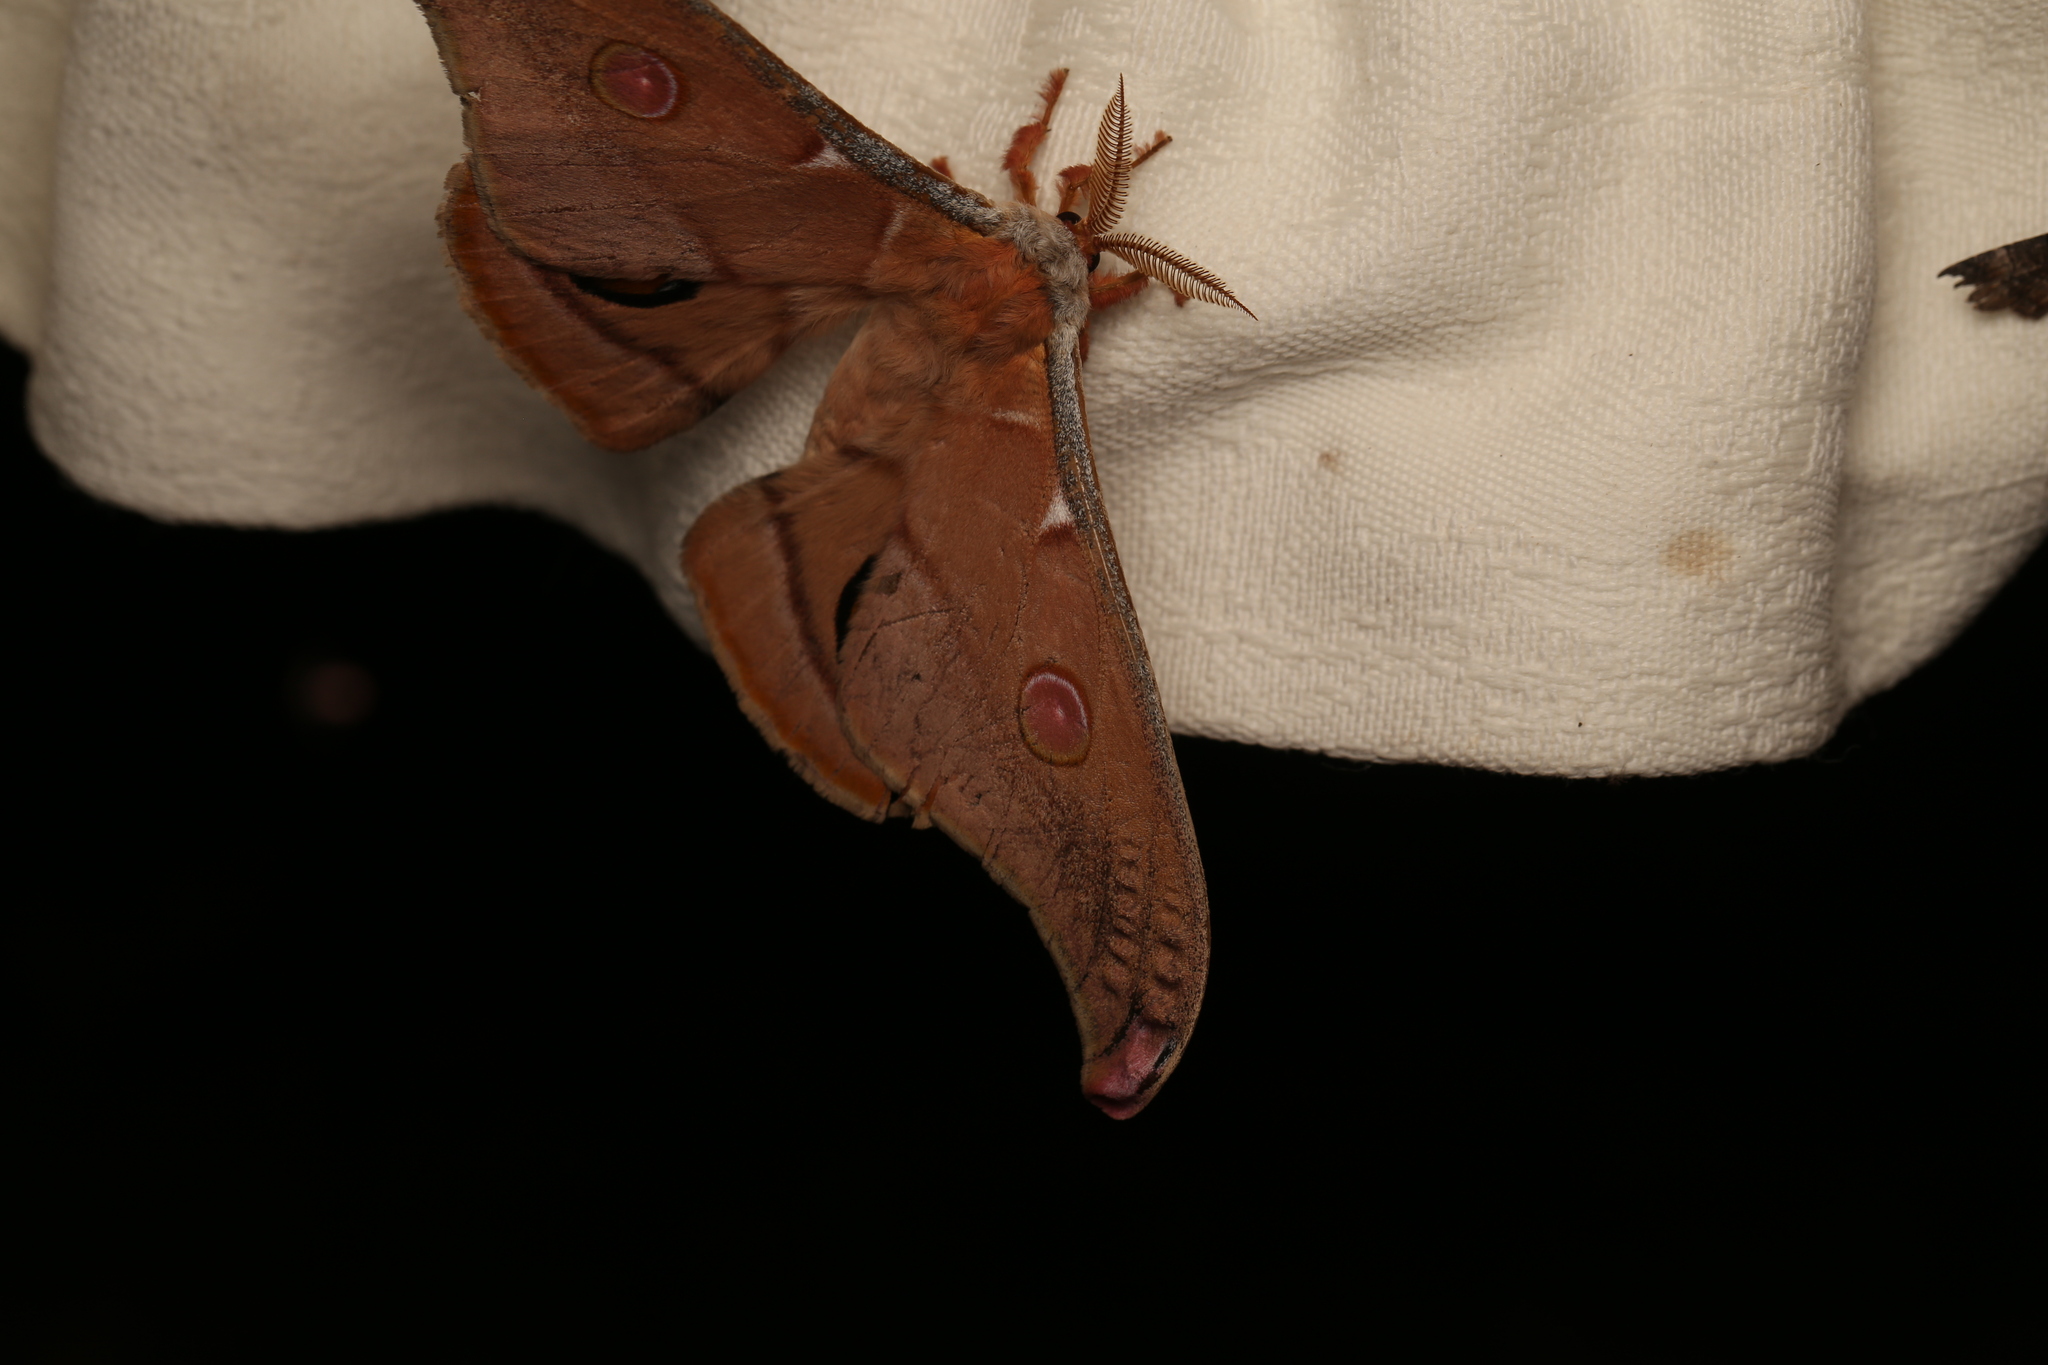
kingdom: Animalia
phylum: Arthropoda
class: Insecta
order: Lepidoptera
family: Saturniidae
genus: Opodiphthera
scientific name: Opodiphthera
